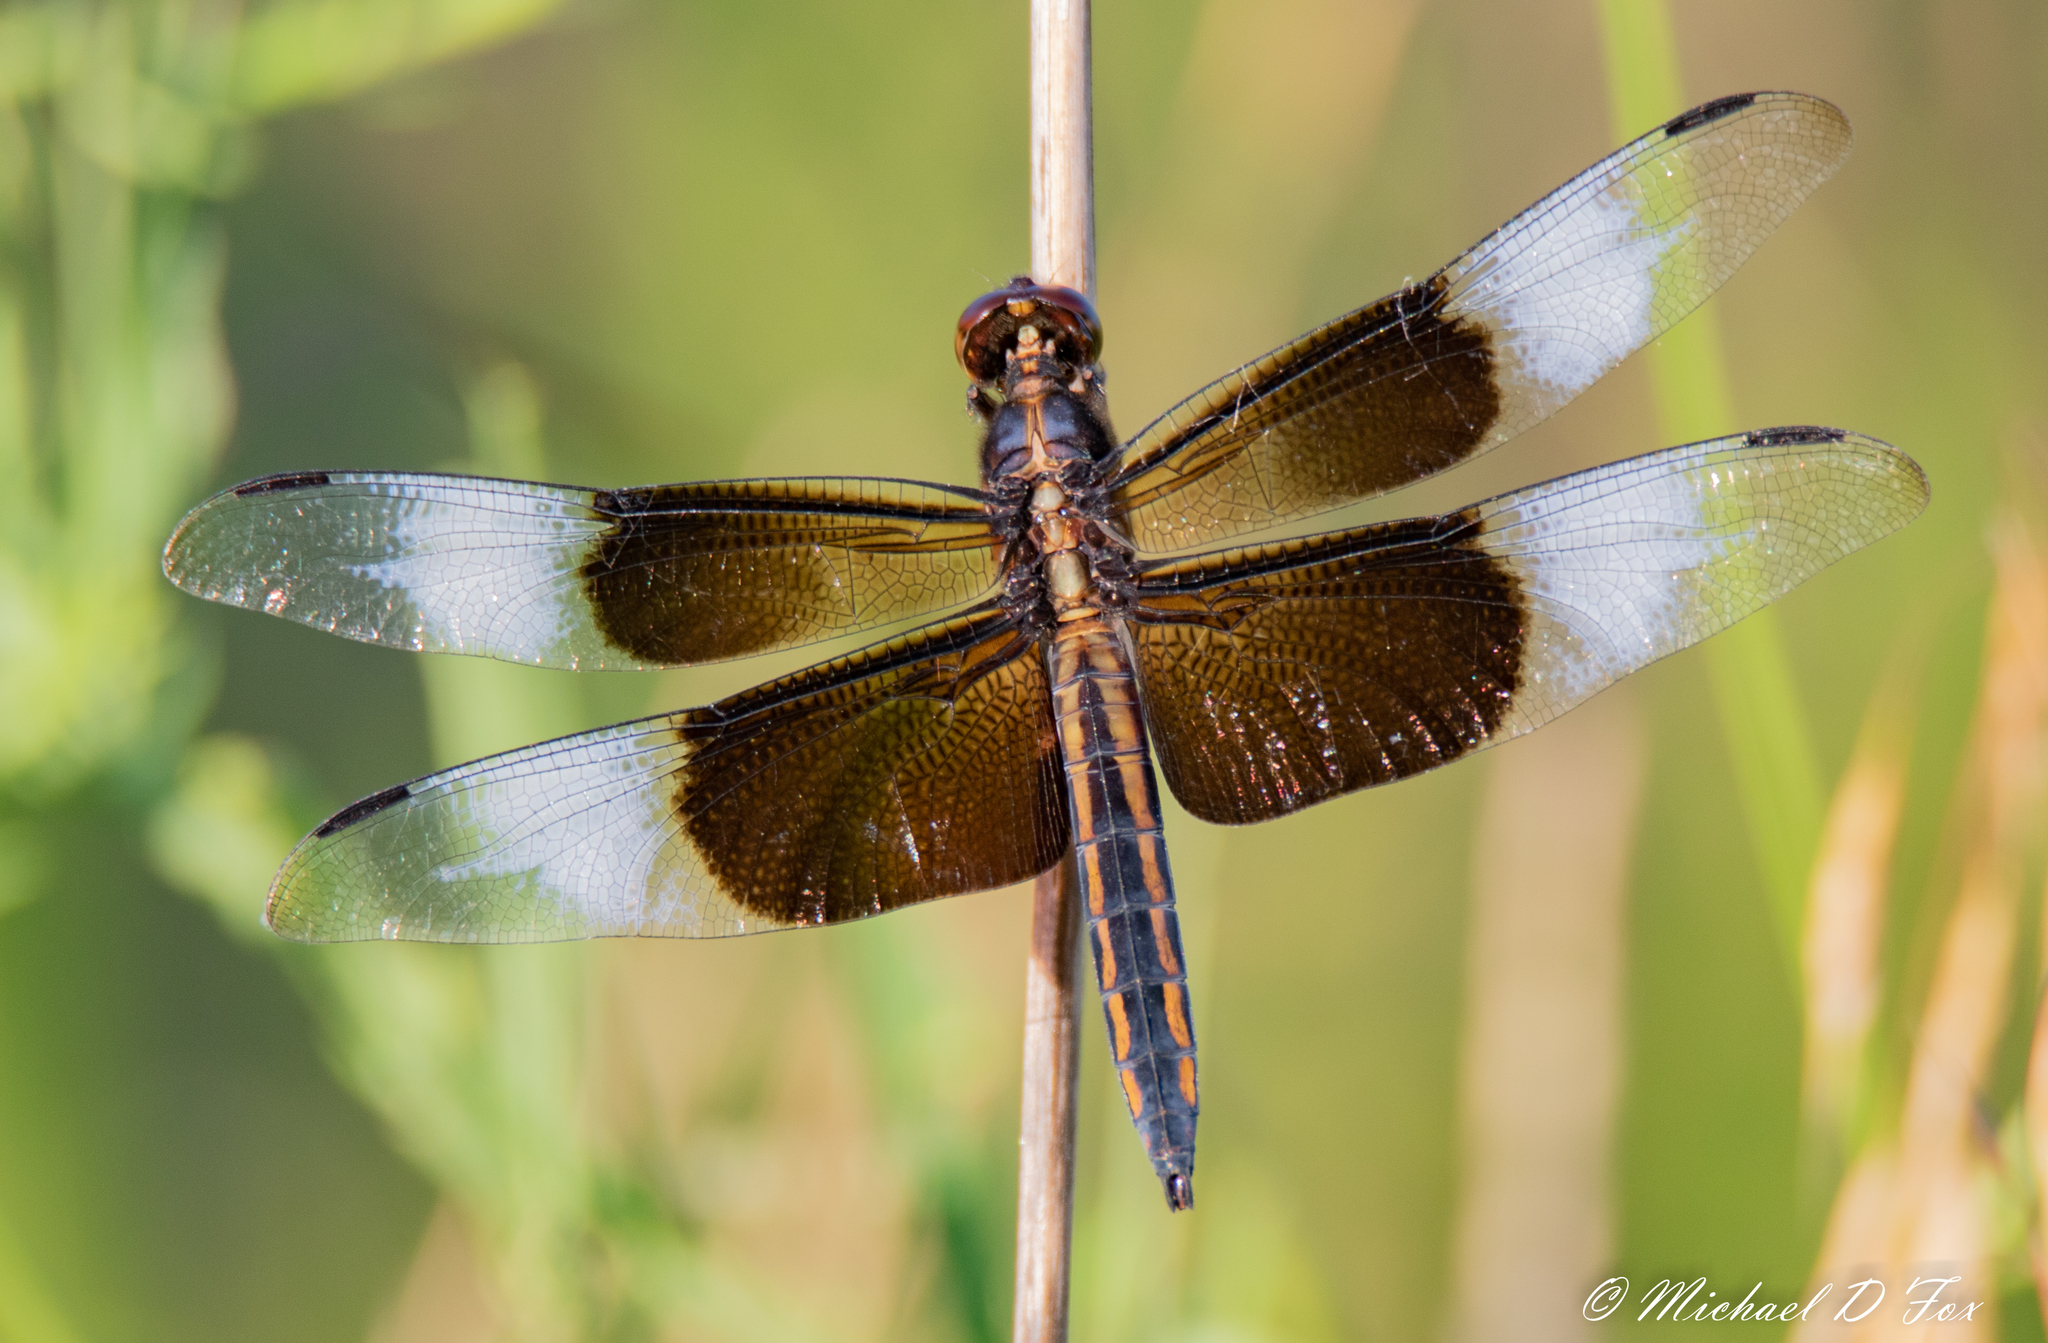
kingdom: Animalia
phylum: Arthropoda
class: Insecta
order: Odonata
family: Libellulidae
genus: Libellula
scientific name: Libellula luctuosa
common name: Widow skimmer
